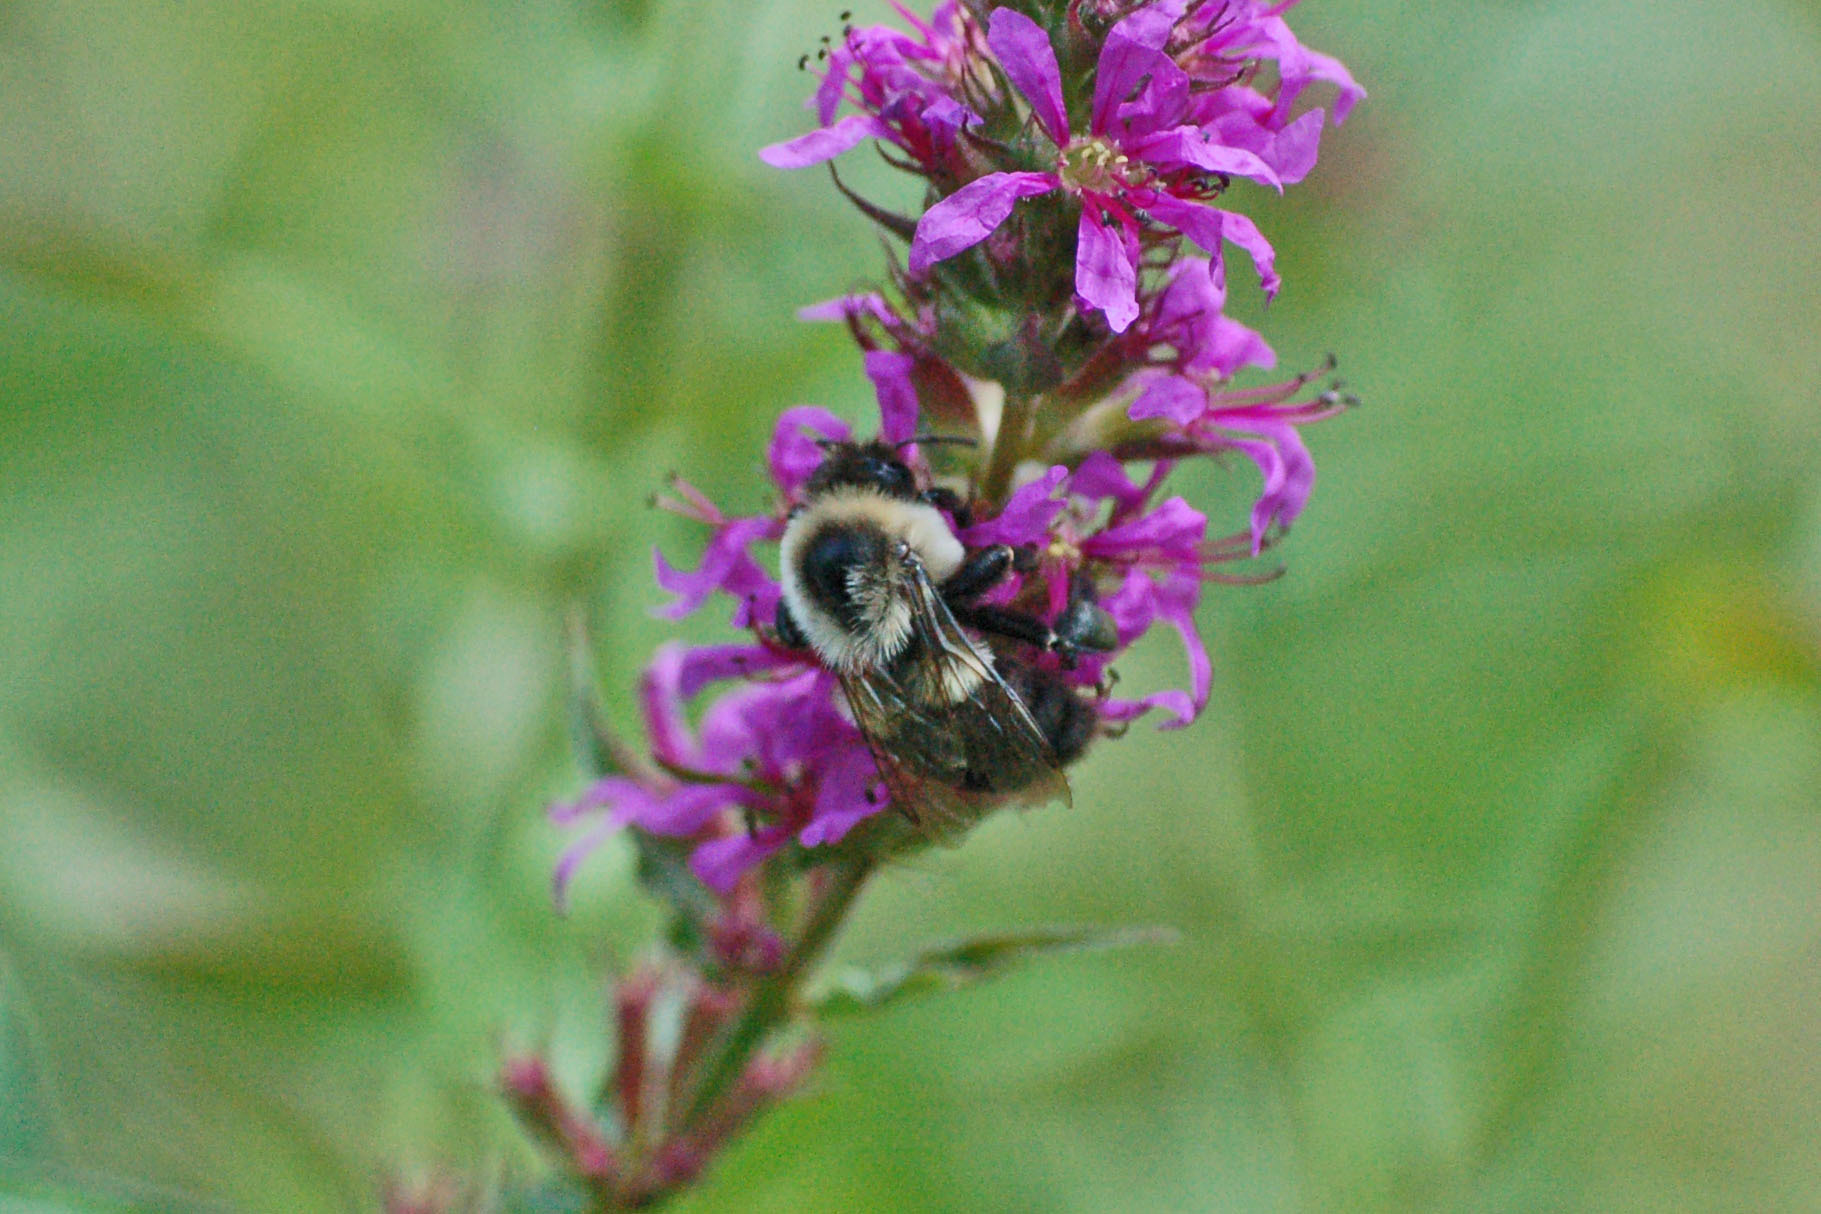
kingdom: Animalia
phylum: Arthropoda
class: Insecta
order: Hymenoptera
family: Apidae
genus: Bombus
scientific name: Bombus impatiens
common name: Common eastern bumble bee
